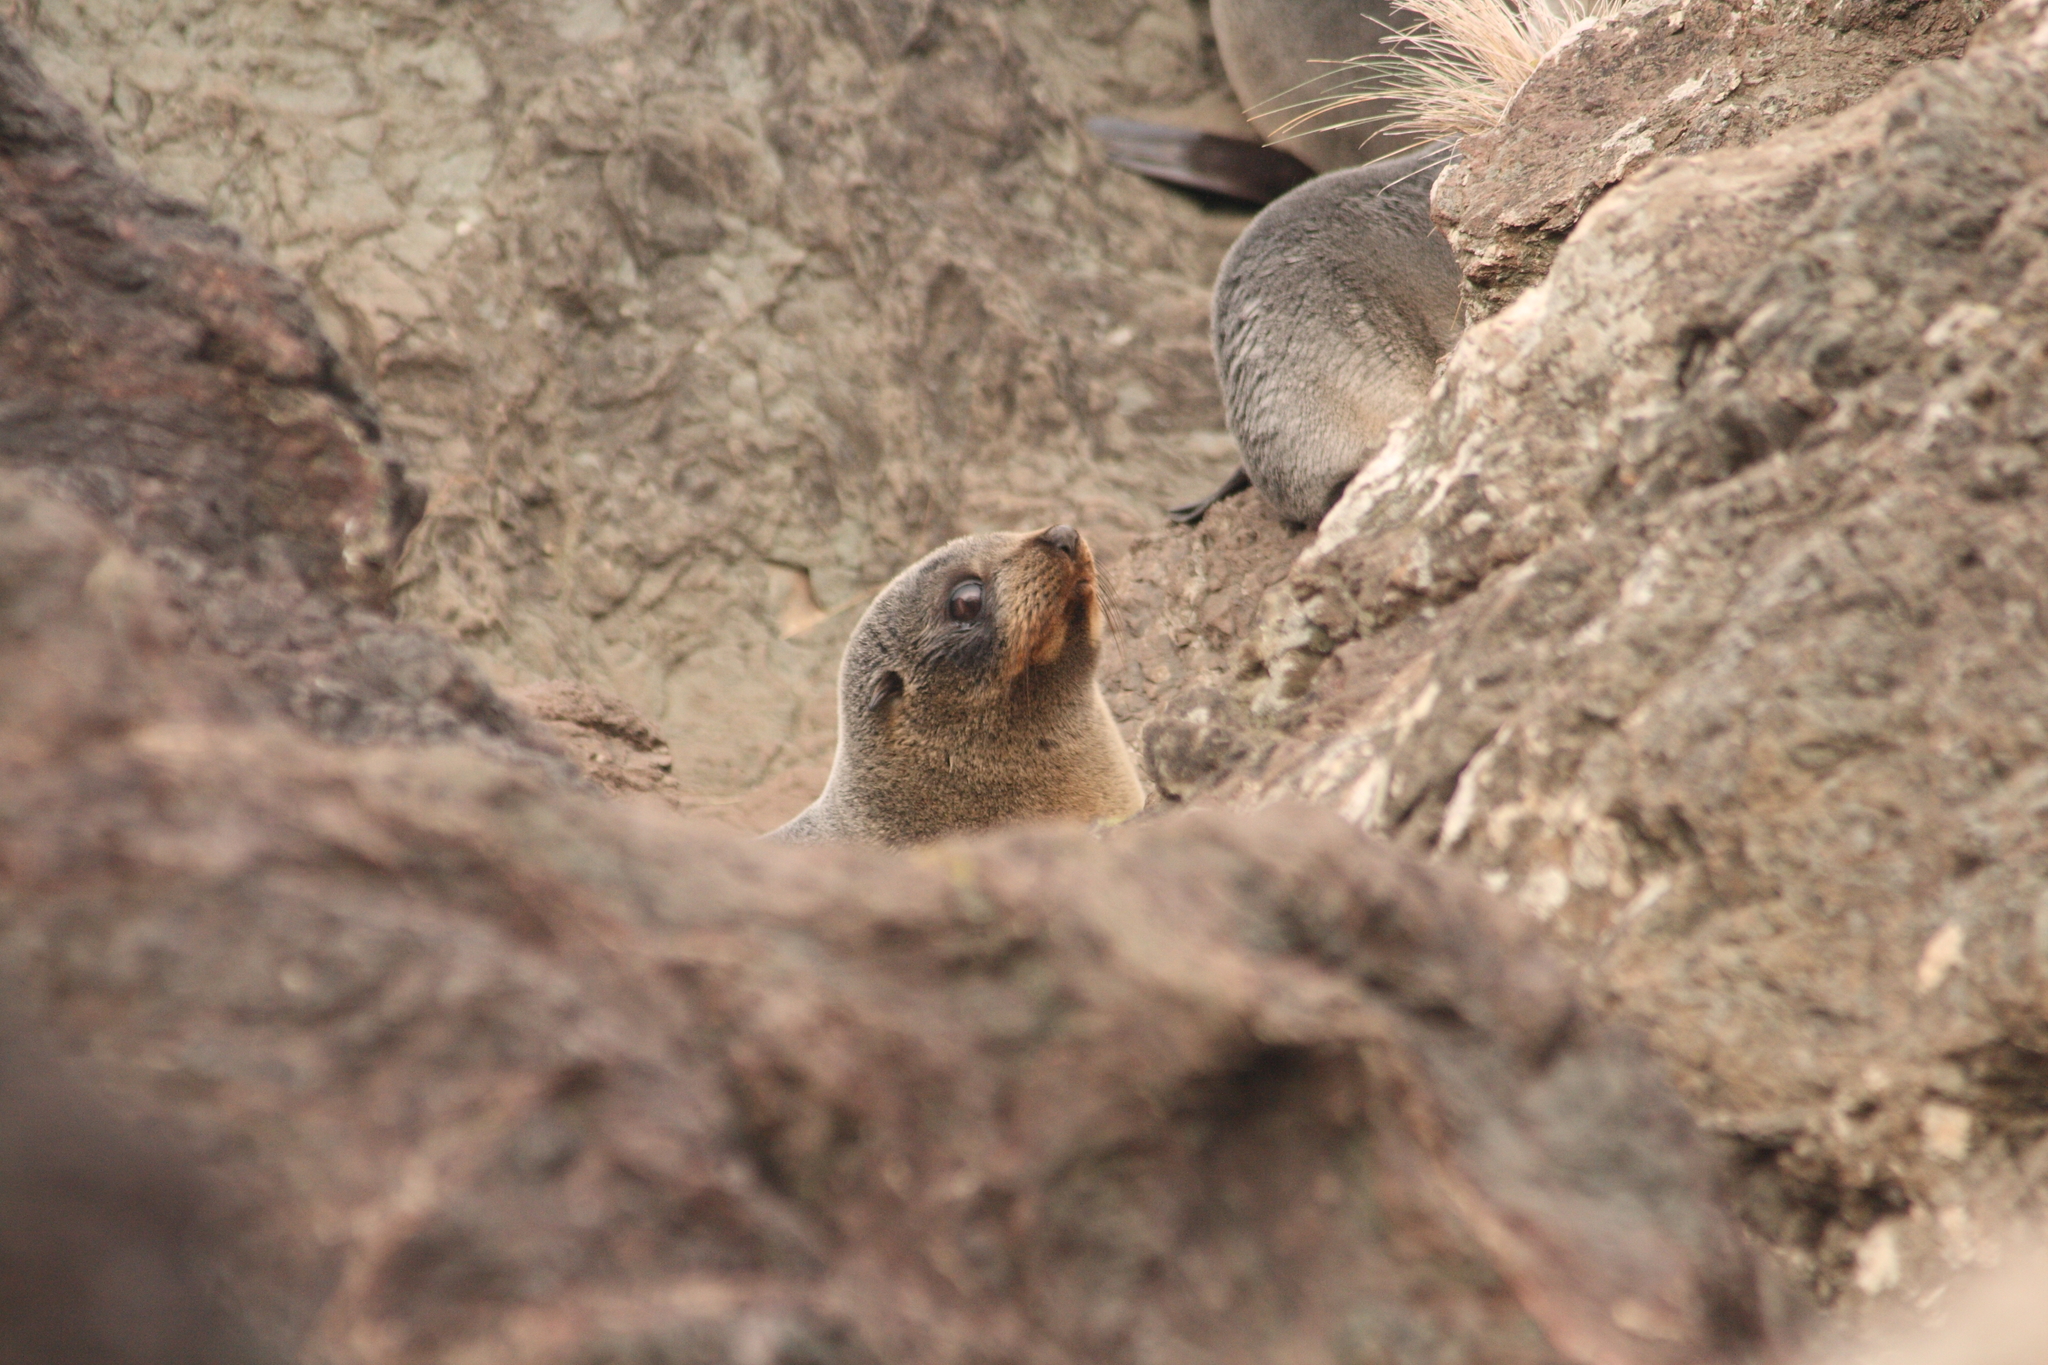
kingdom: Animalia
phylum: Chordata
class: Mammalia
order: Carnivora
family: Otariidae
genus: Arctocephalus
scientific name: Arctocephalus forsteri
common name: New zealand fur seal
